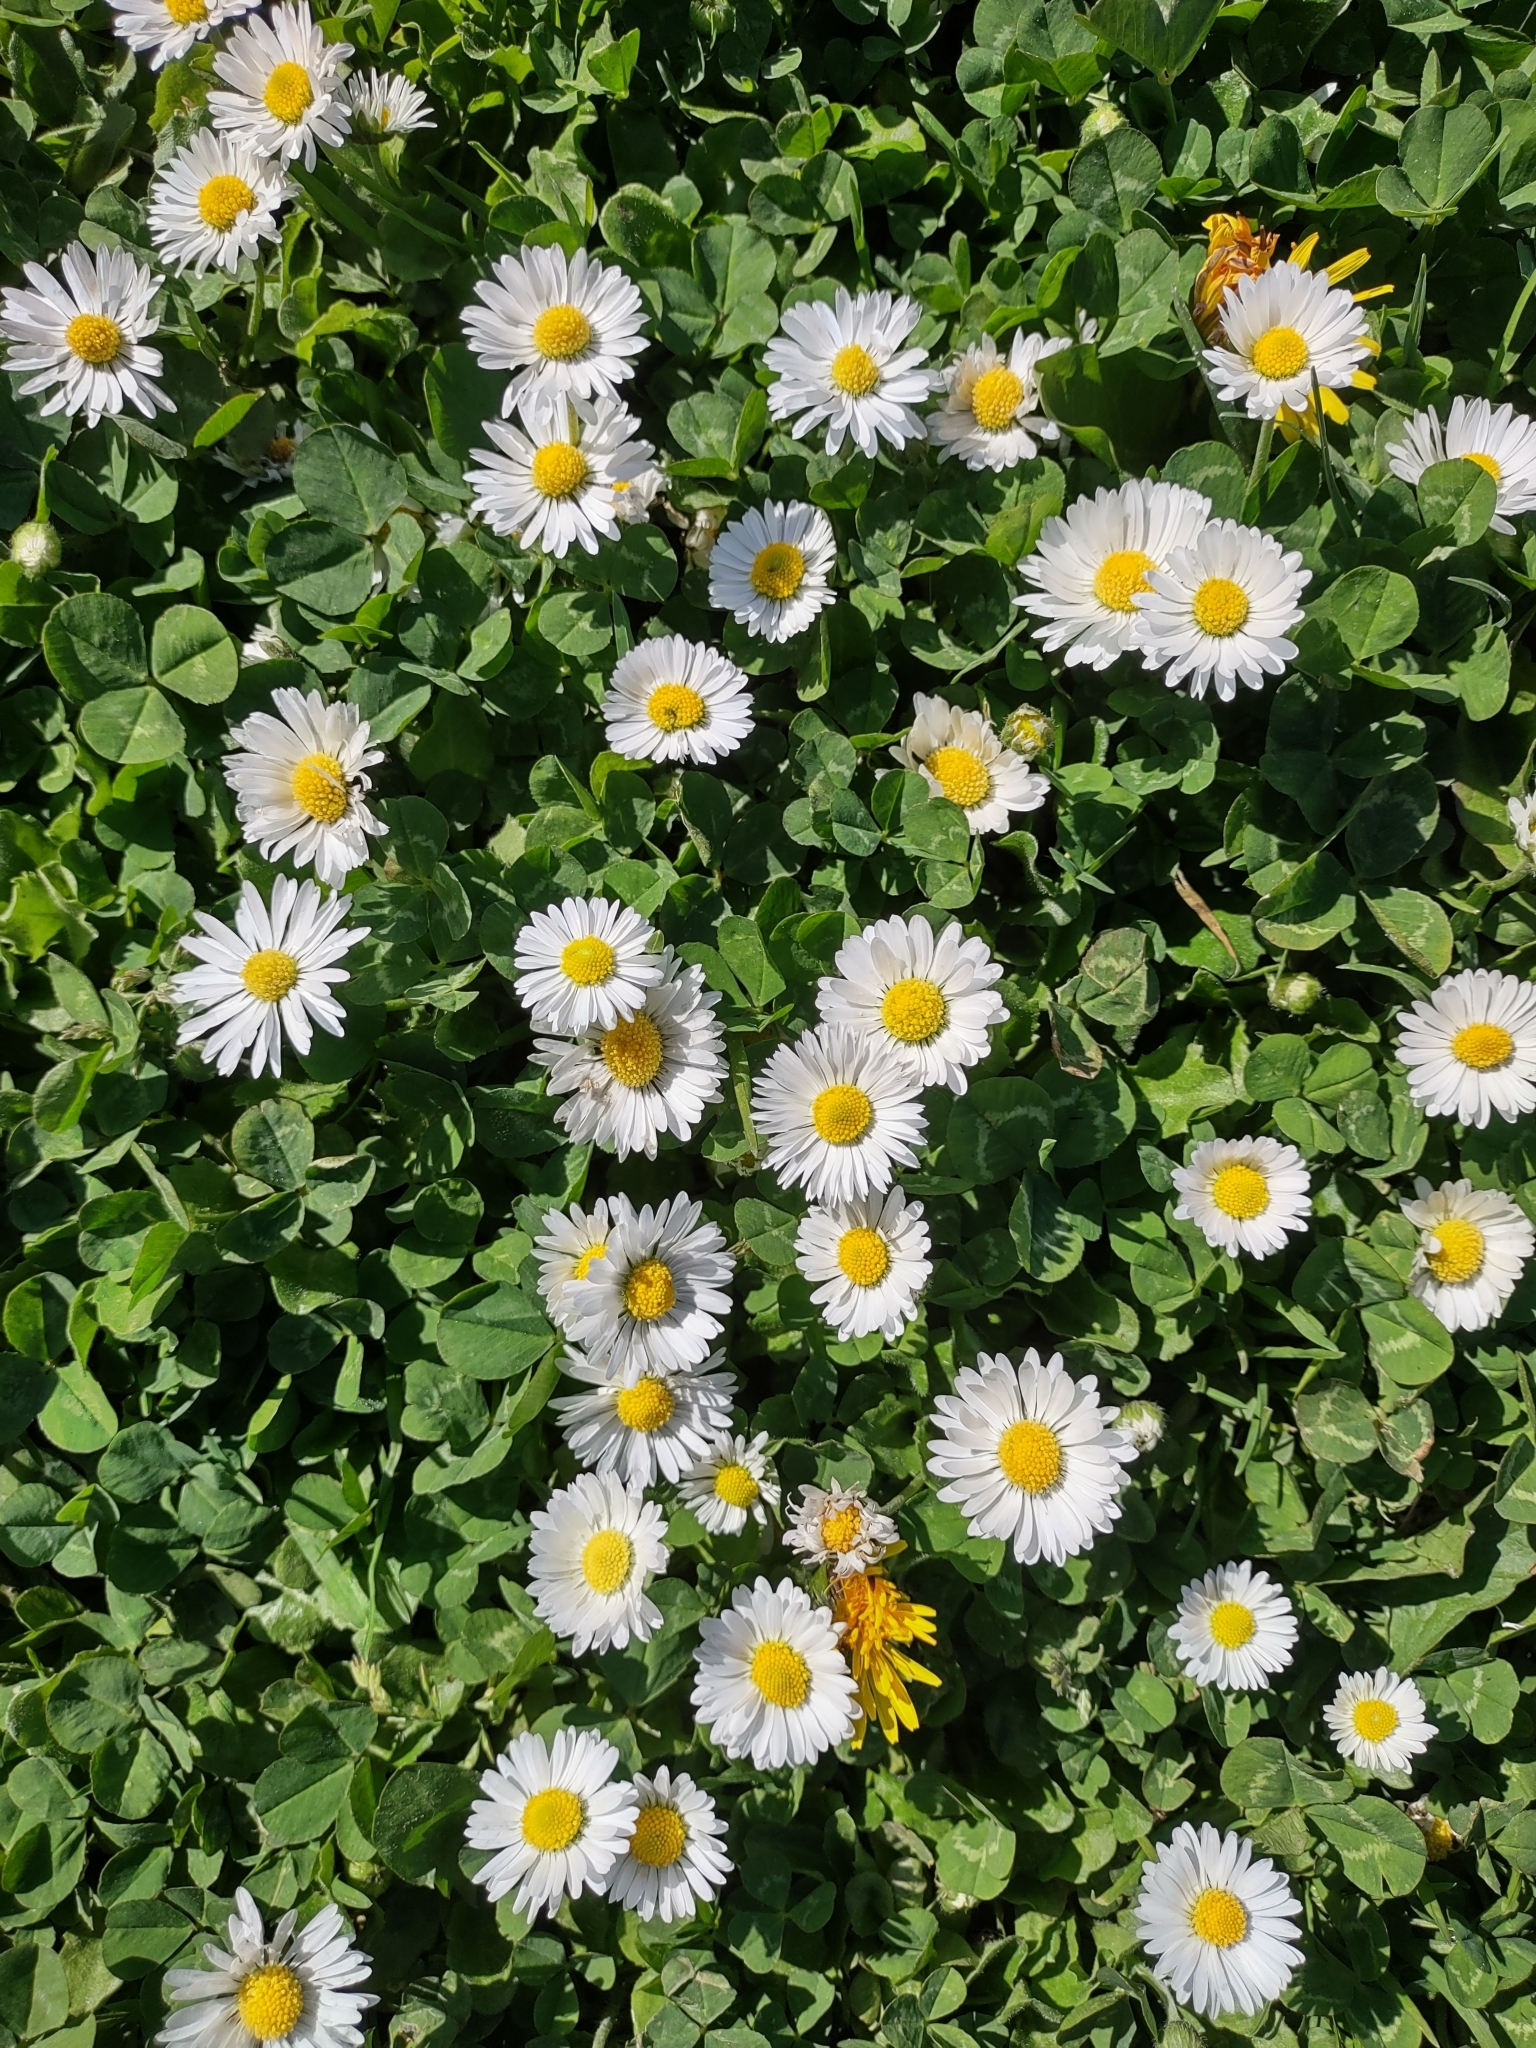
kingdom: Plantae
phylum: Tracheophyta
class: Magnoliopsida
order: Asterales
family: Asteraceae
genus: Bellis
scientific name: Bellis perennis
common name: Lawndaisy
